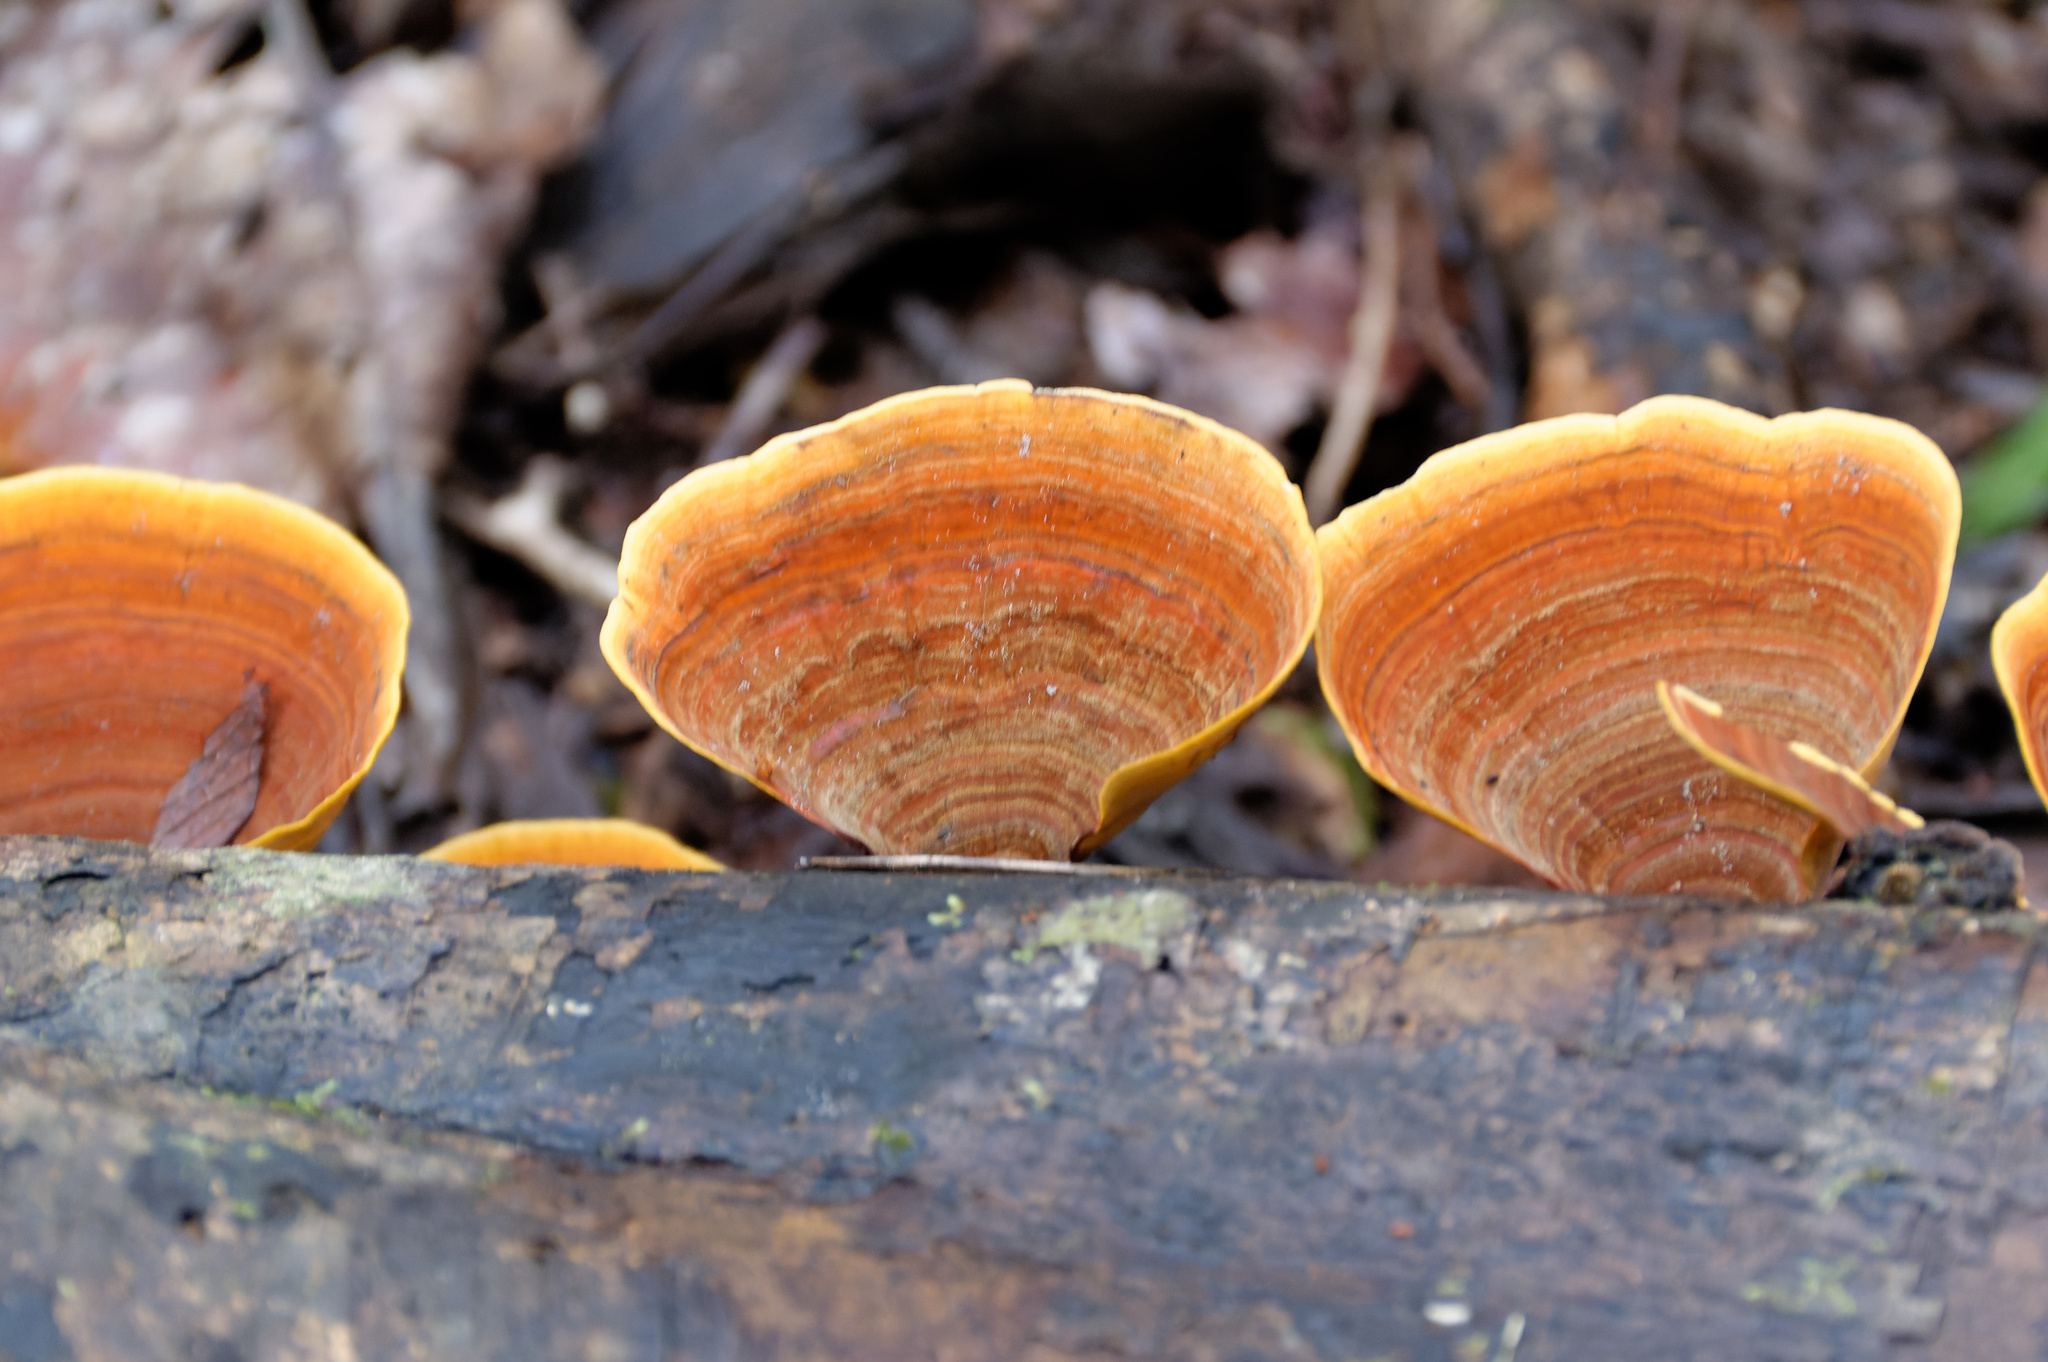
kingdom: Fungi
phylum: Basidiomycota
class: Agaricomycetes
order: Russulales
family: Stereaceae
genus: Stereum
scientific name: Stereum ostrea
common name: False turkeytail
